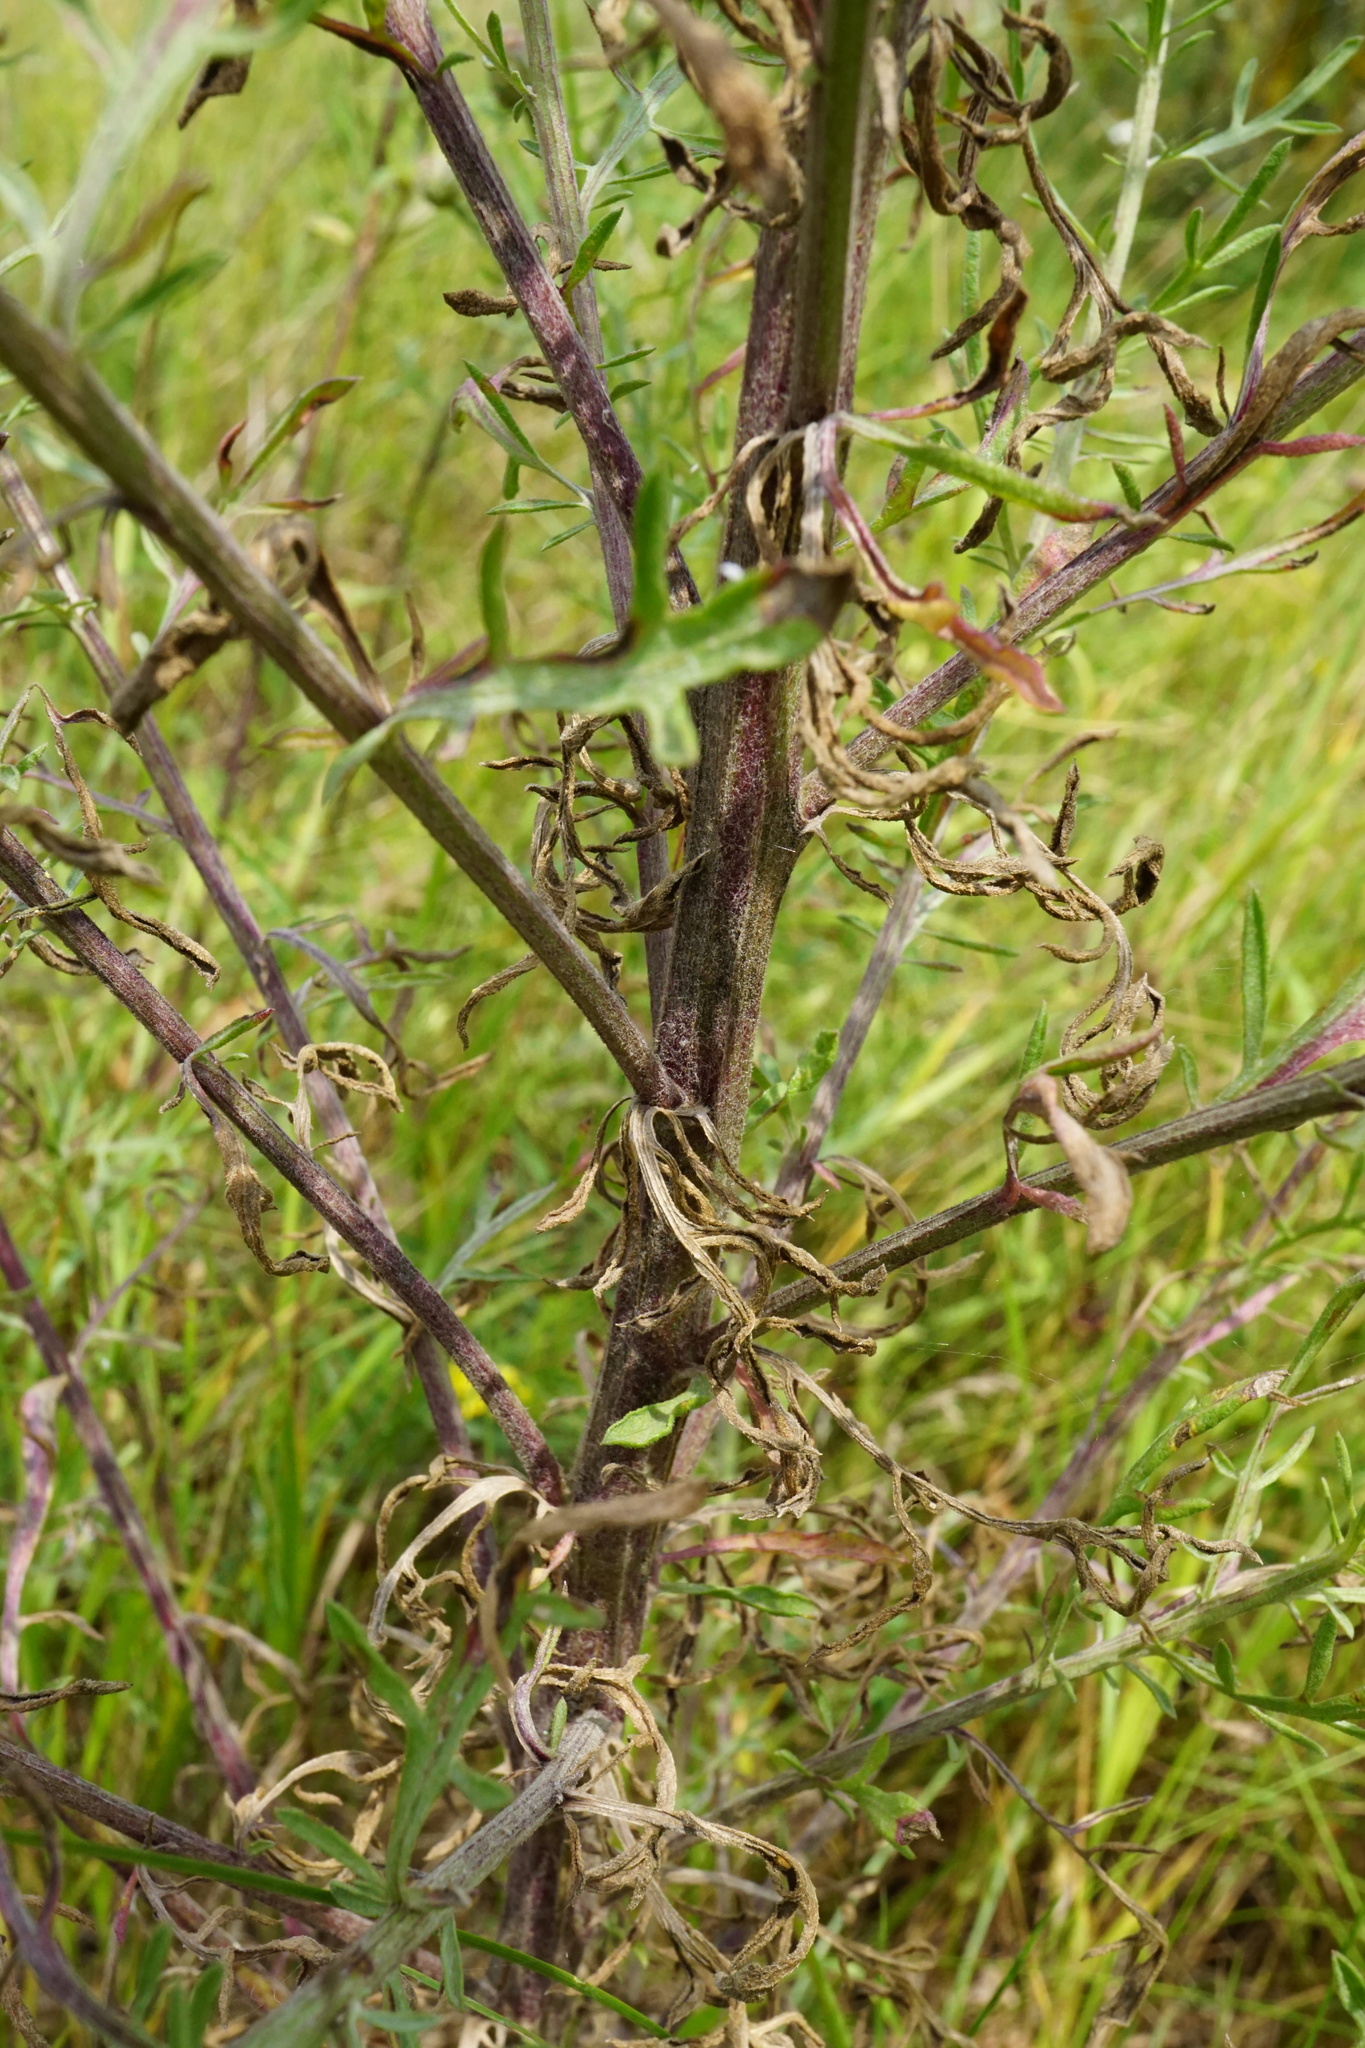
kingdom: Plantae
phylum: Tracheophyta
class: Magnoliopsida
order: Asterales
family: Asteraceae
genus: Centaurea
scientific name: Centaurea stoebe
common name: Spotted knapweed
